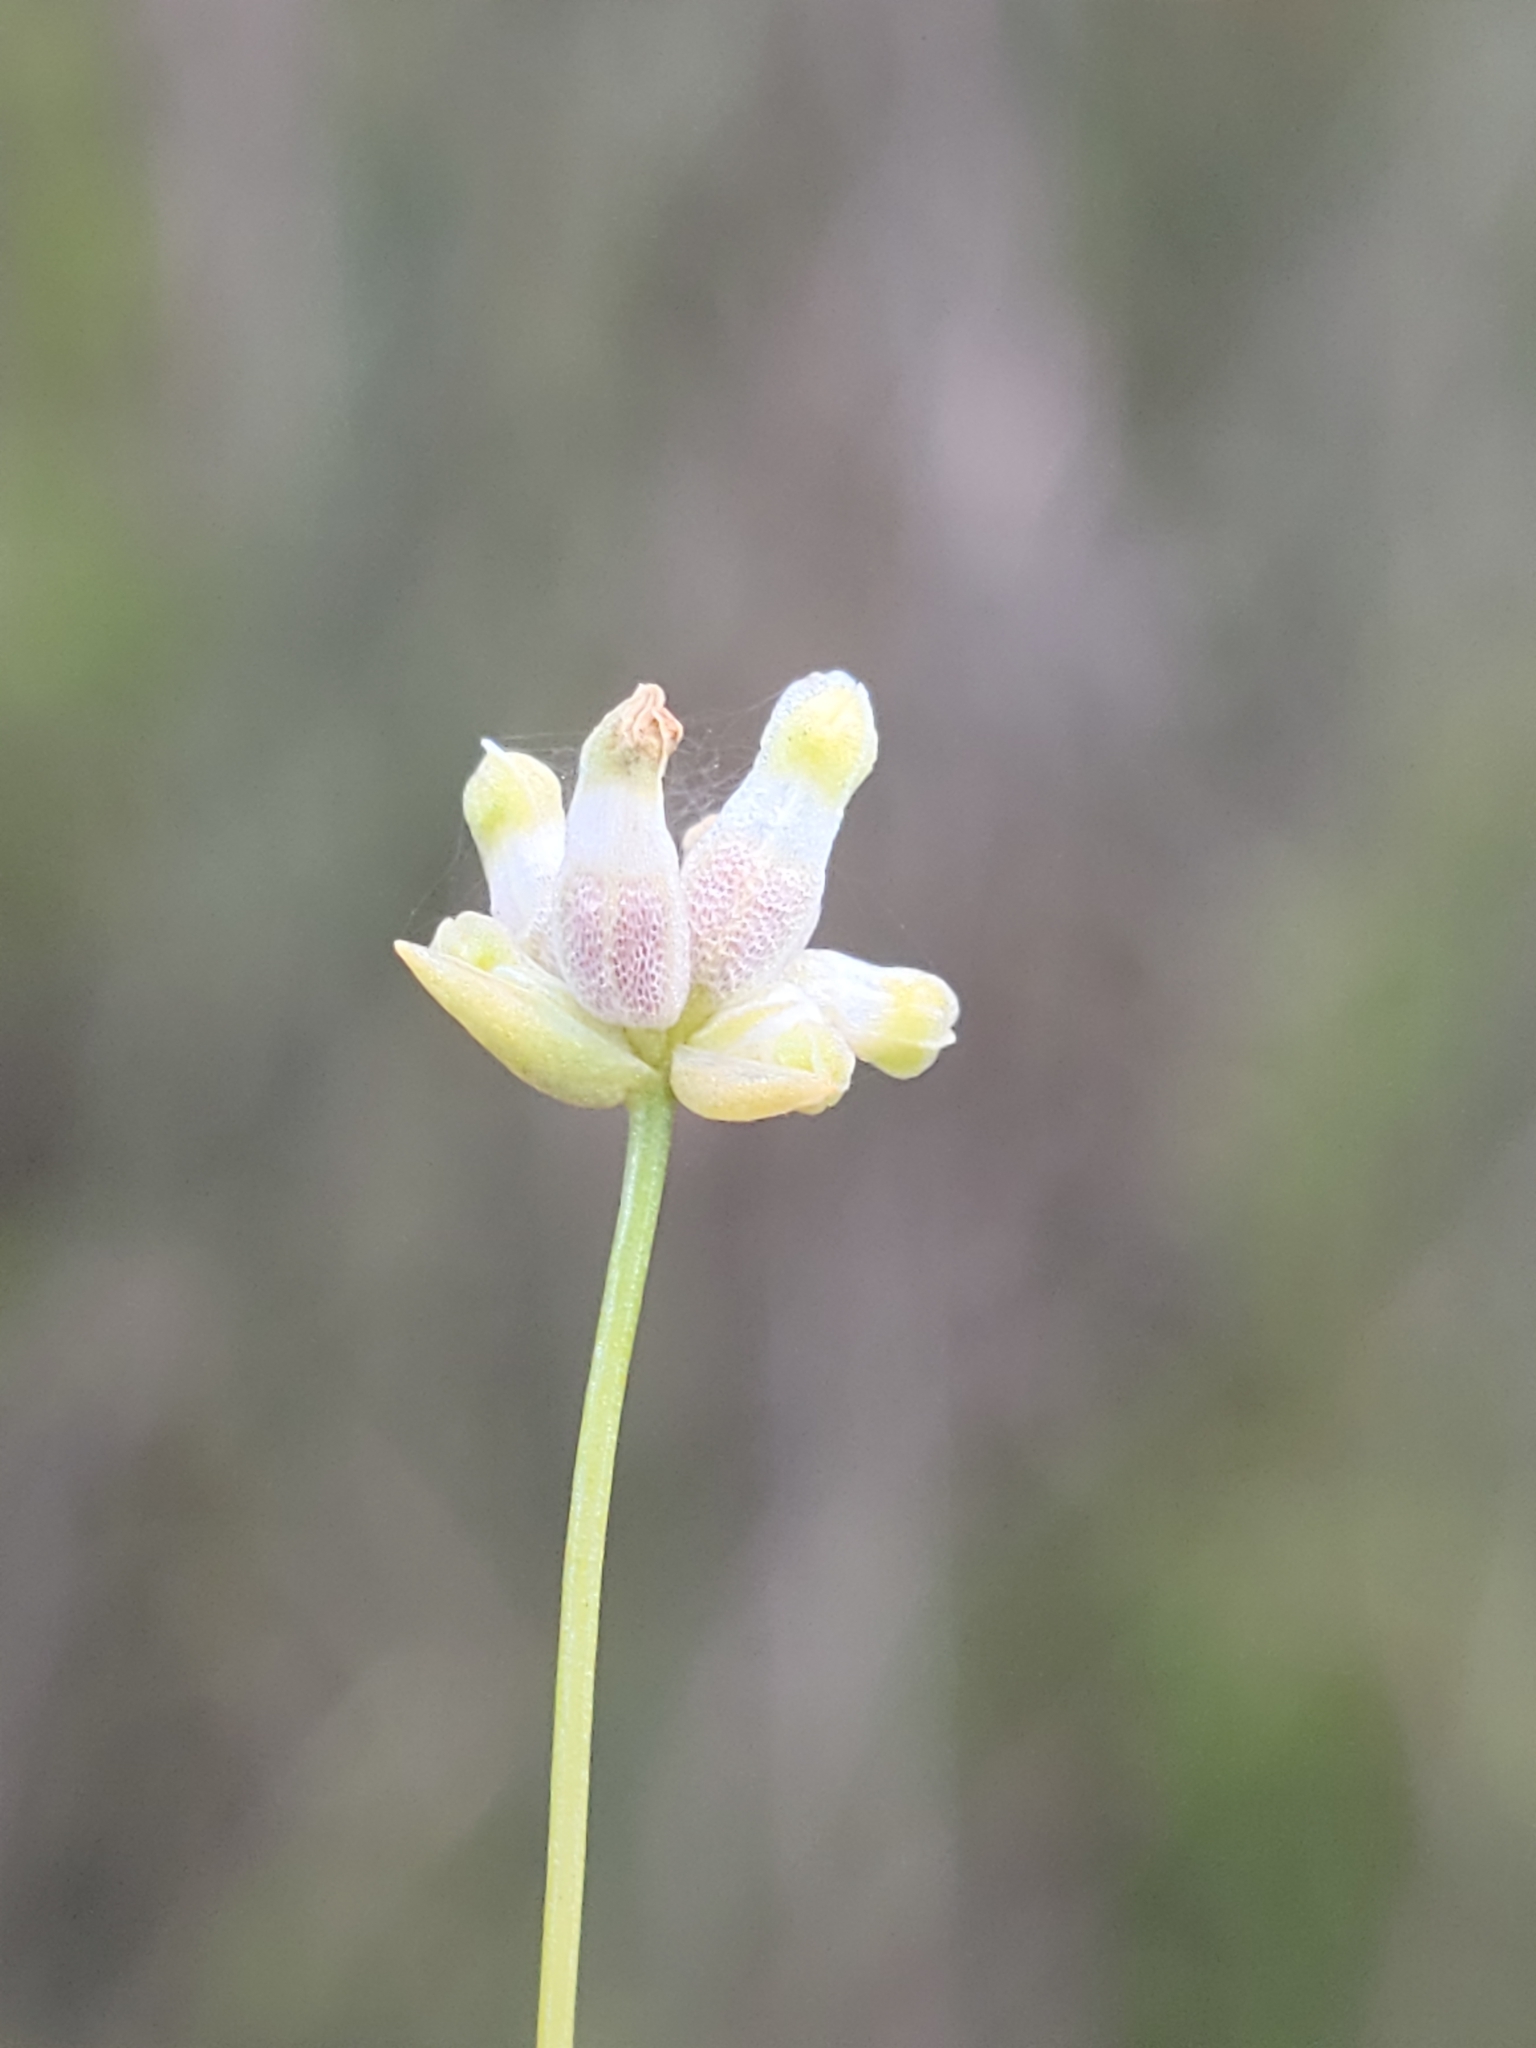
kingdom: Plantae
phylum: Tracheophyta
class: Liliopsida
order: Dioscoreales
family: Burmanniaceae
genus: Burmannia
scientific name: Burmannia capitata
